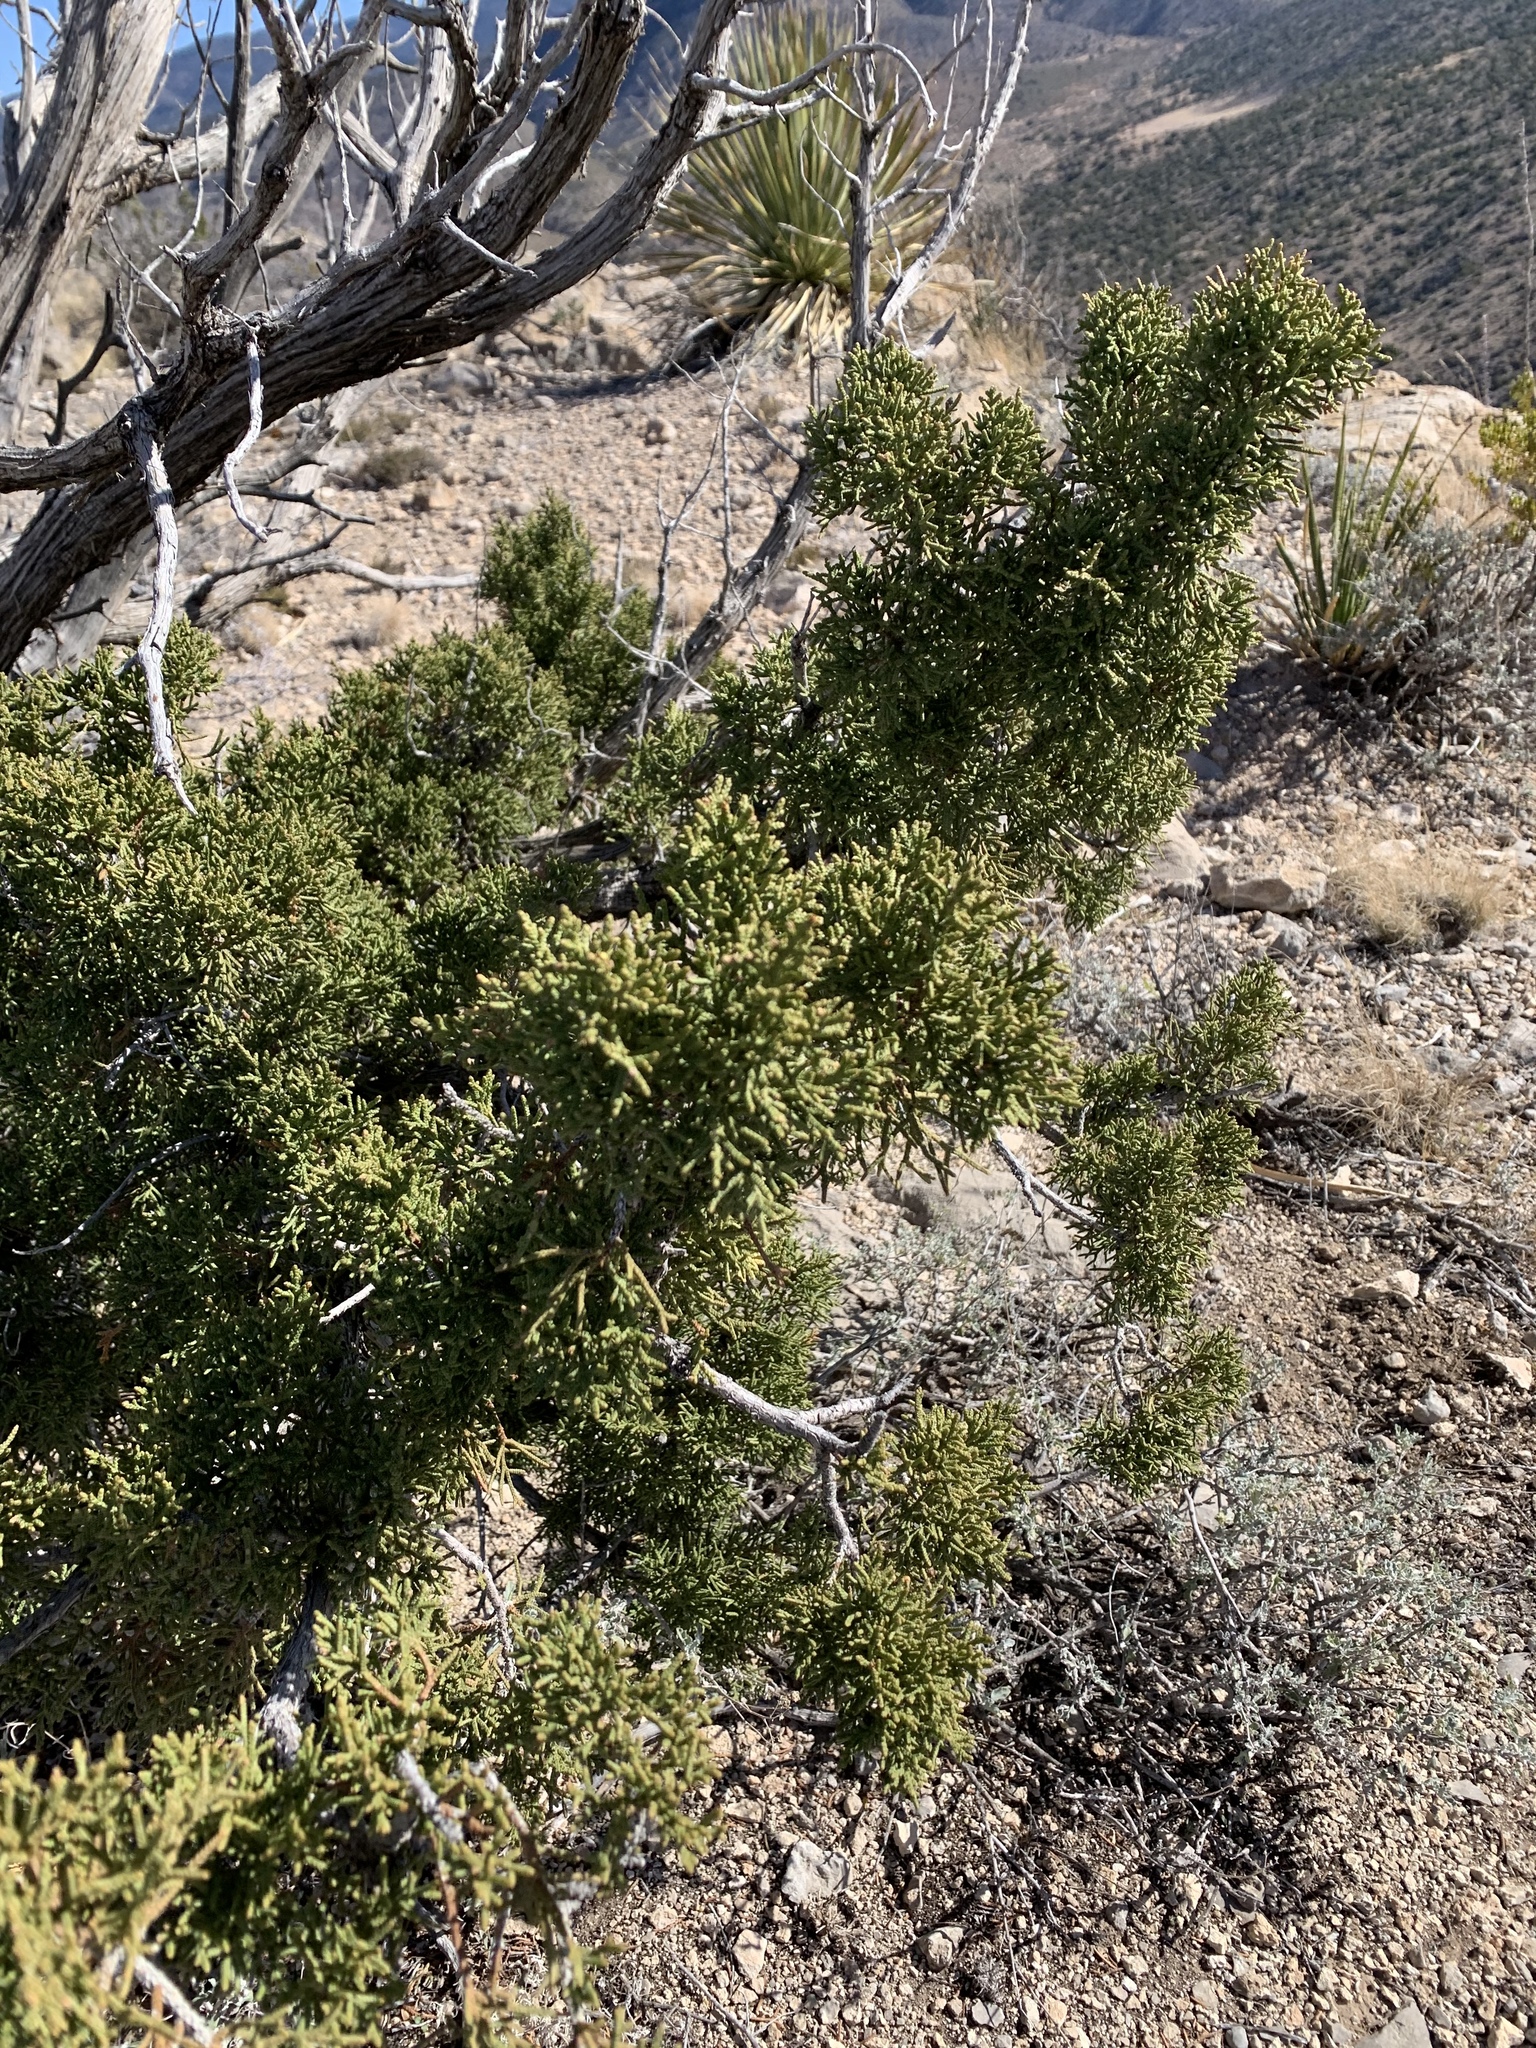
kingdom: Plantae
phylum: Tracheophyta
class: Pinopsida
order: Pinales
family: Cupressaceae
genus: Juniperus
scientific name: Juniperus monosperma
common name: One-seed juniper
